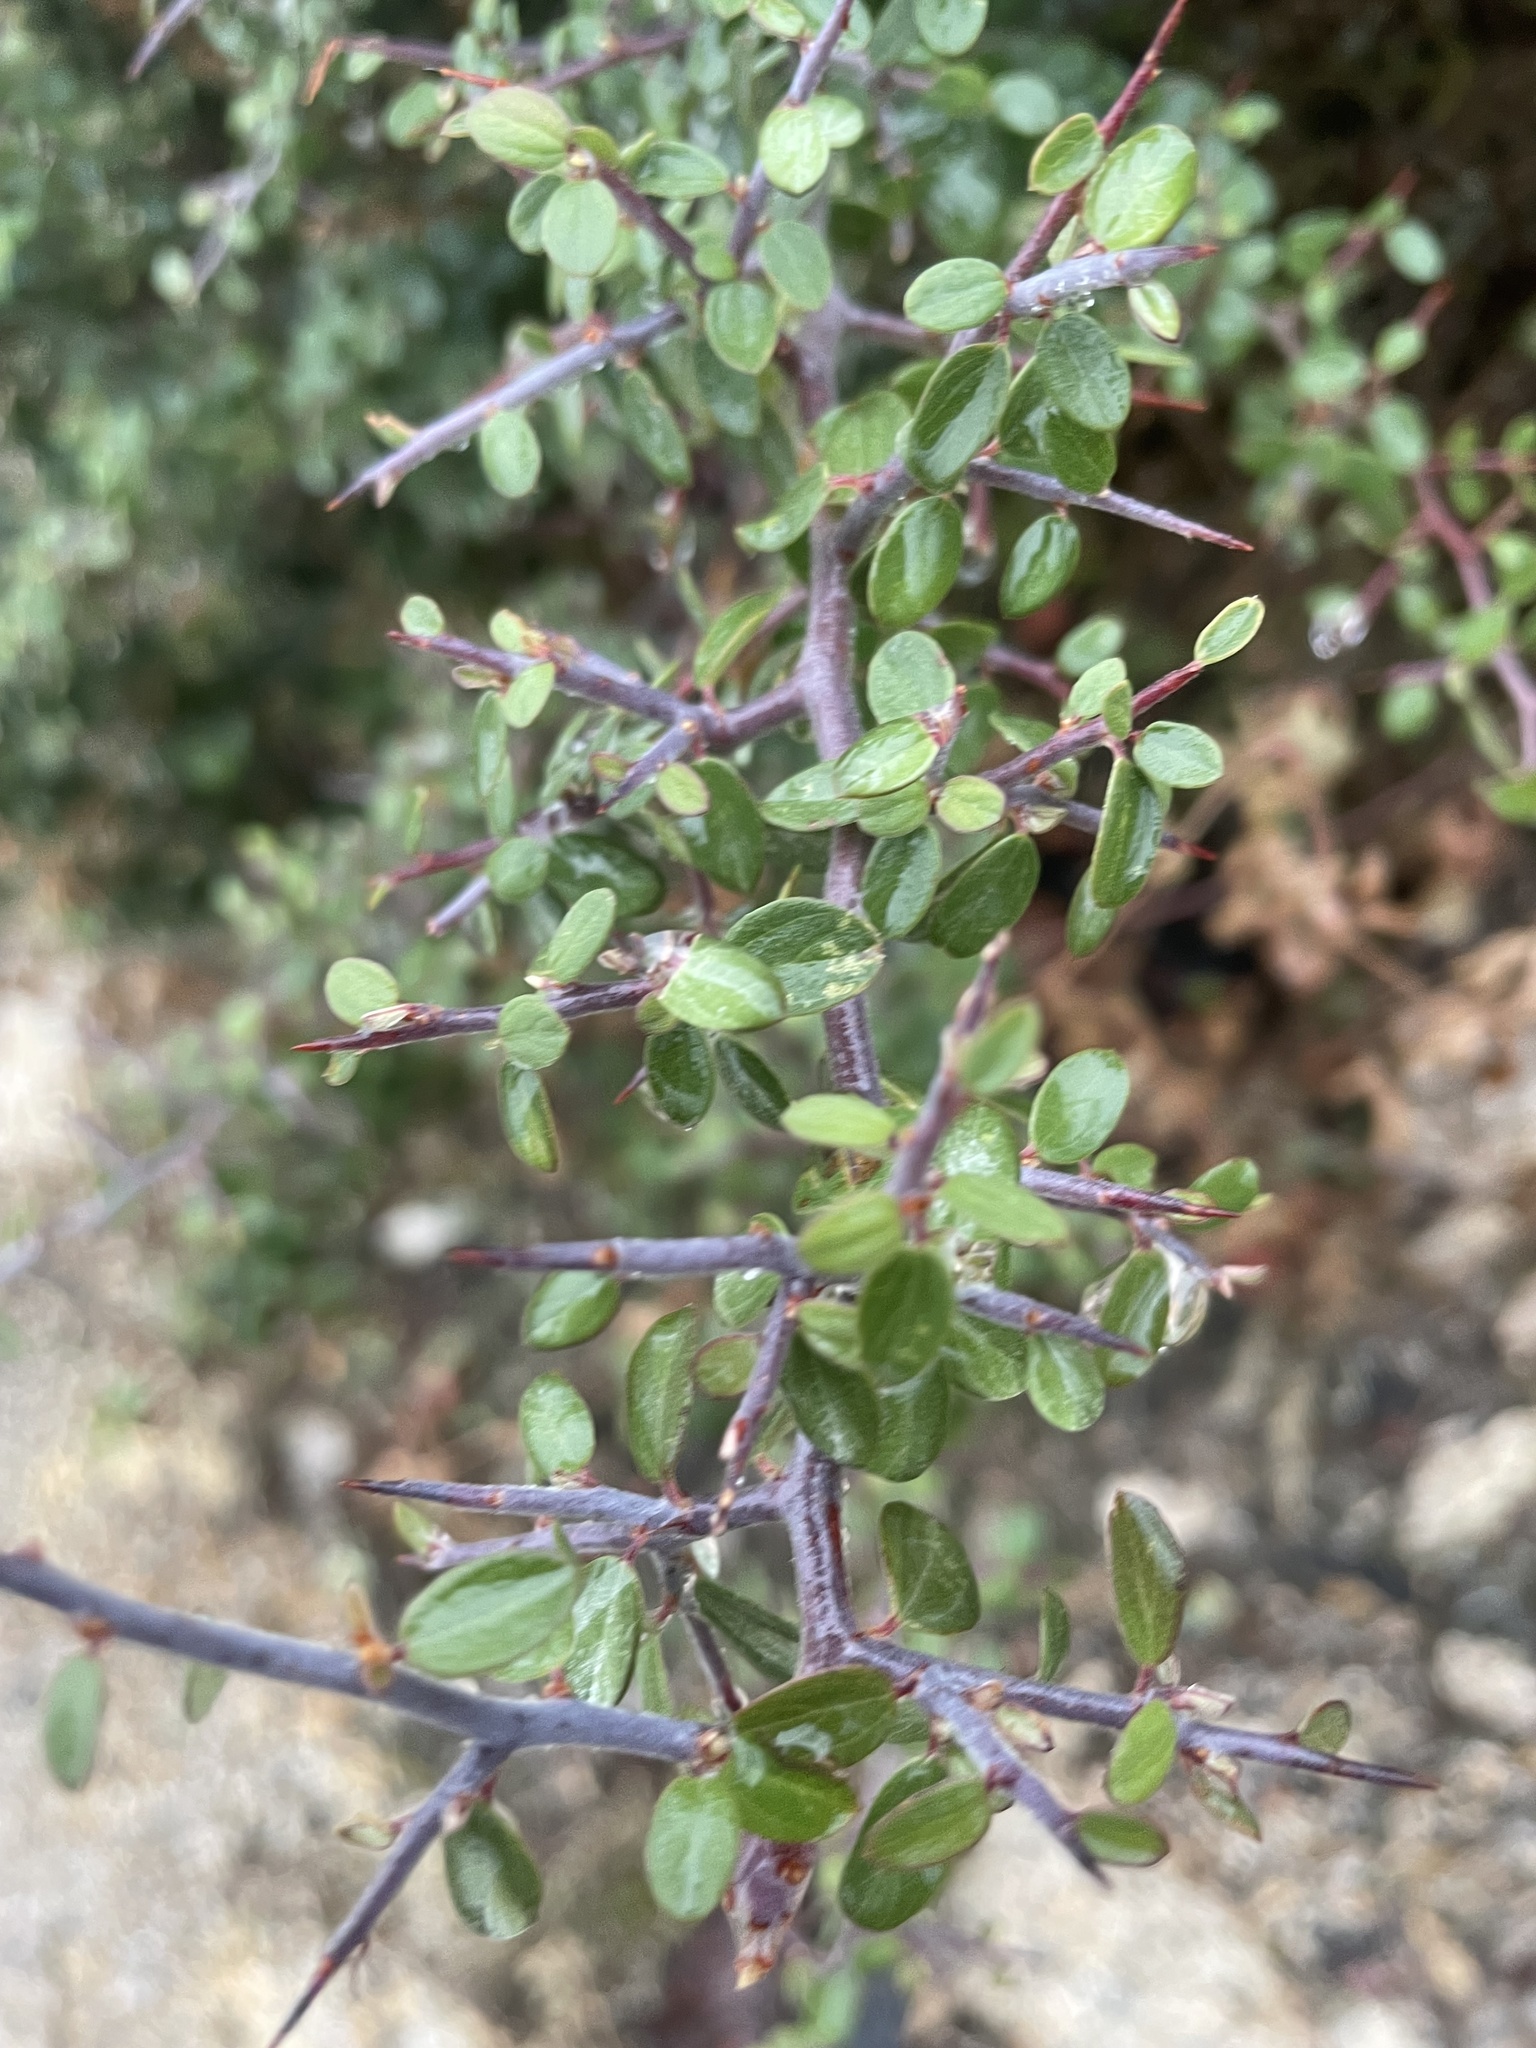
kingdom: Plantae
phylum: Tracheophyta
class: Magnoliopsida
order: Rosales
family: Rhamnaceae
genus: Ceanothus
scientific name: Ceanothus fendleri
